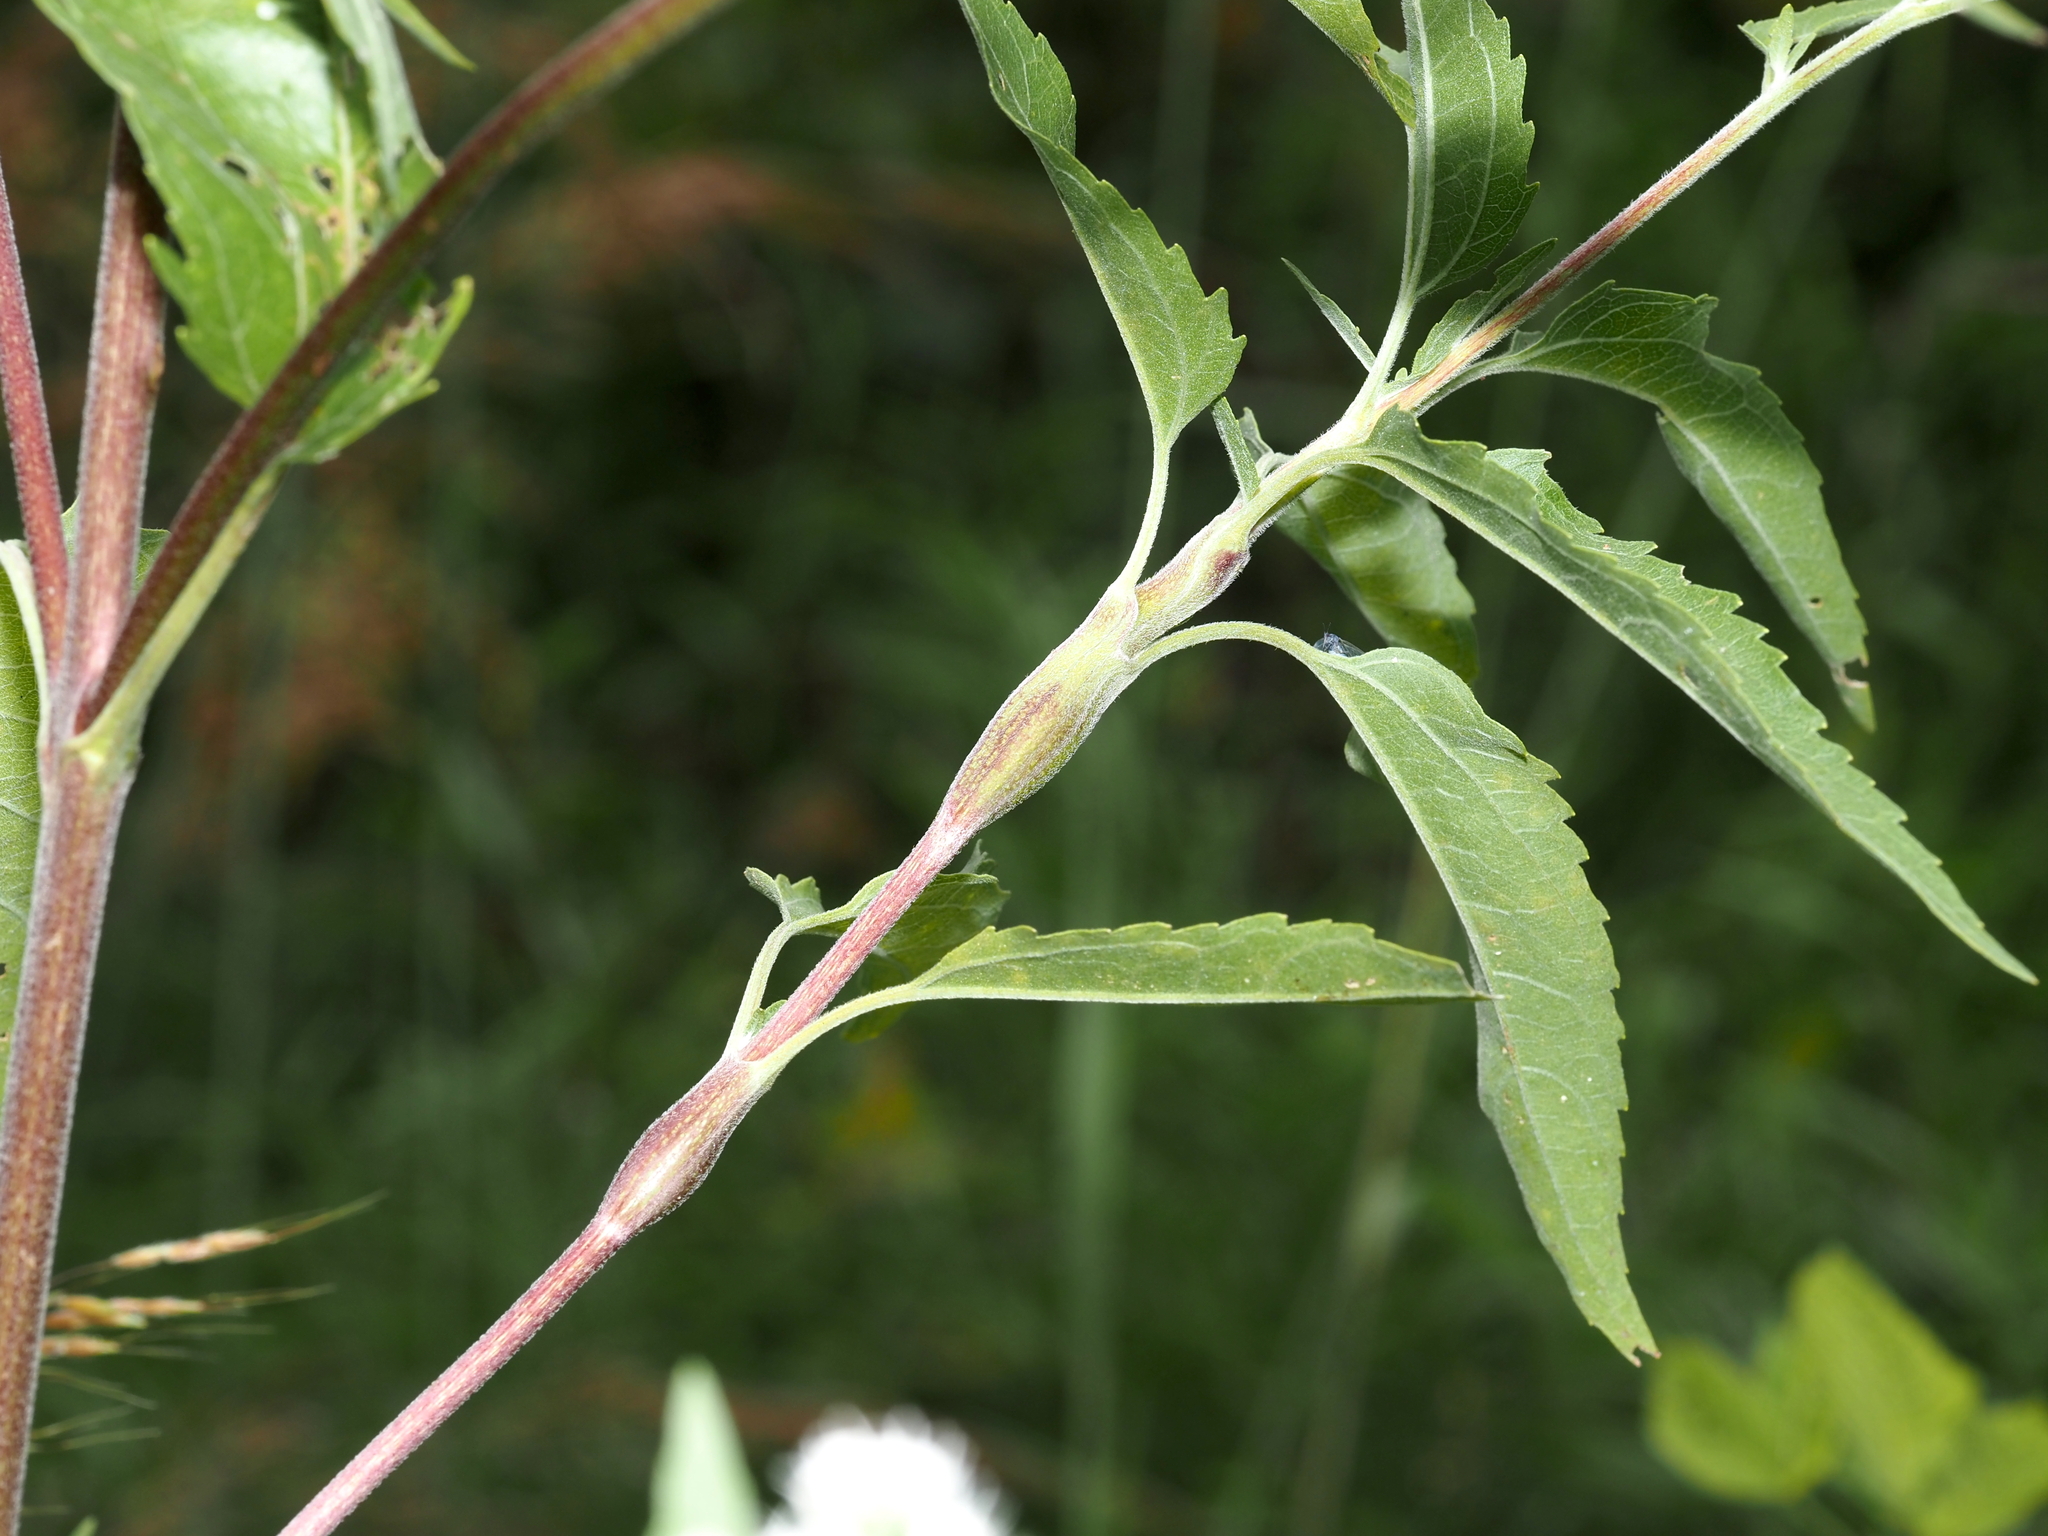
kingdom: Animalia
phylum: Arthropoda
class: Insecta
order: Diptera
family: Cecidomyiidae
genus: Neolasioptera
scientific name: Neolasioptera perfoliata
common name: Boneset stem midge
